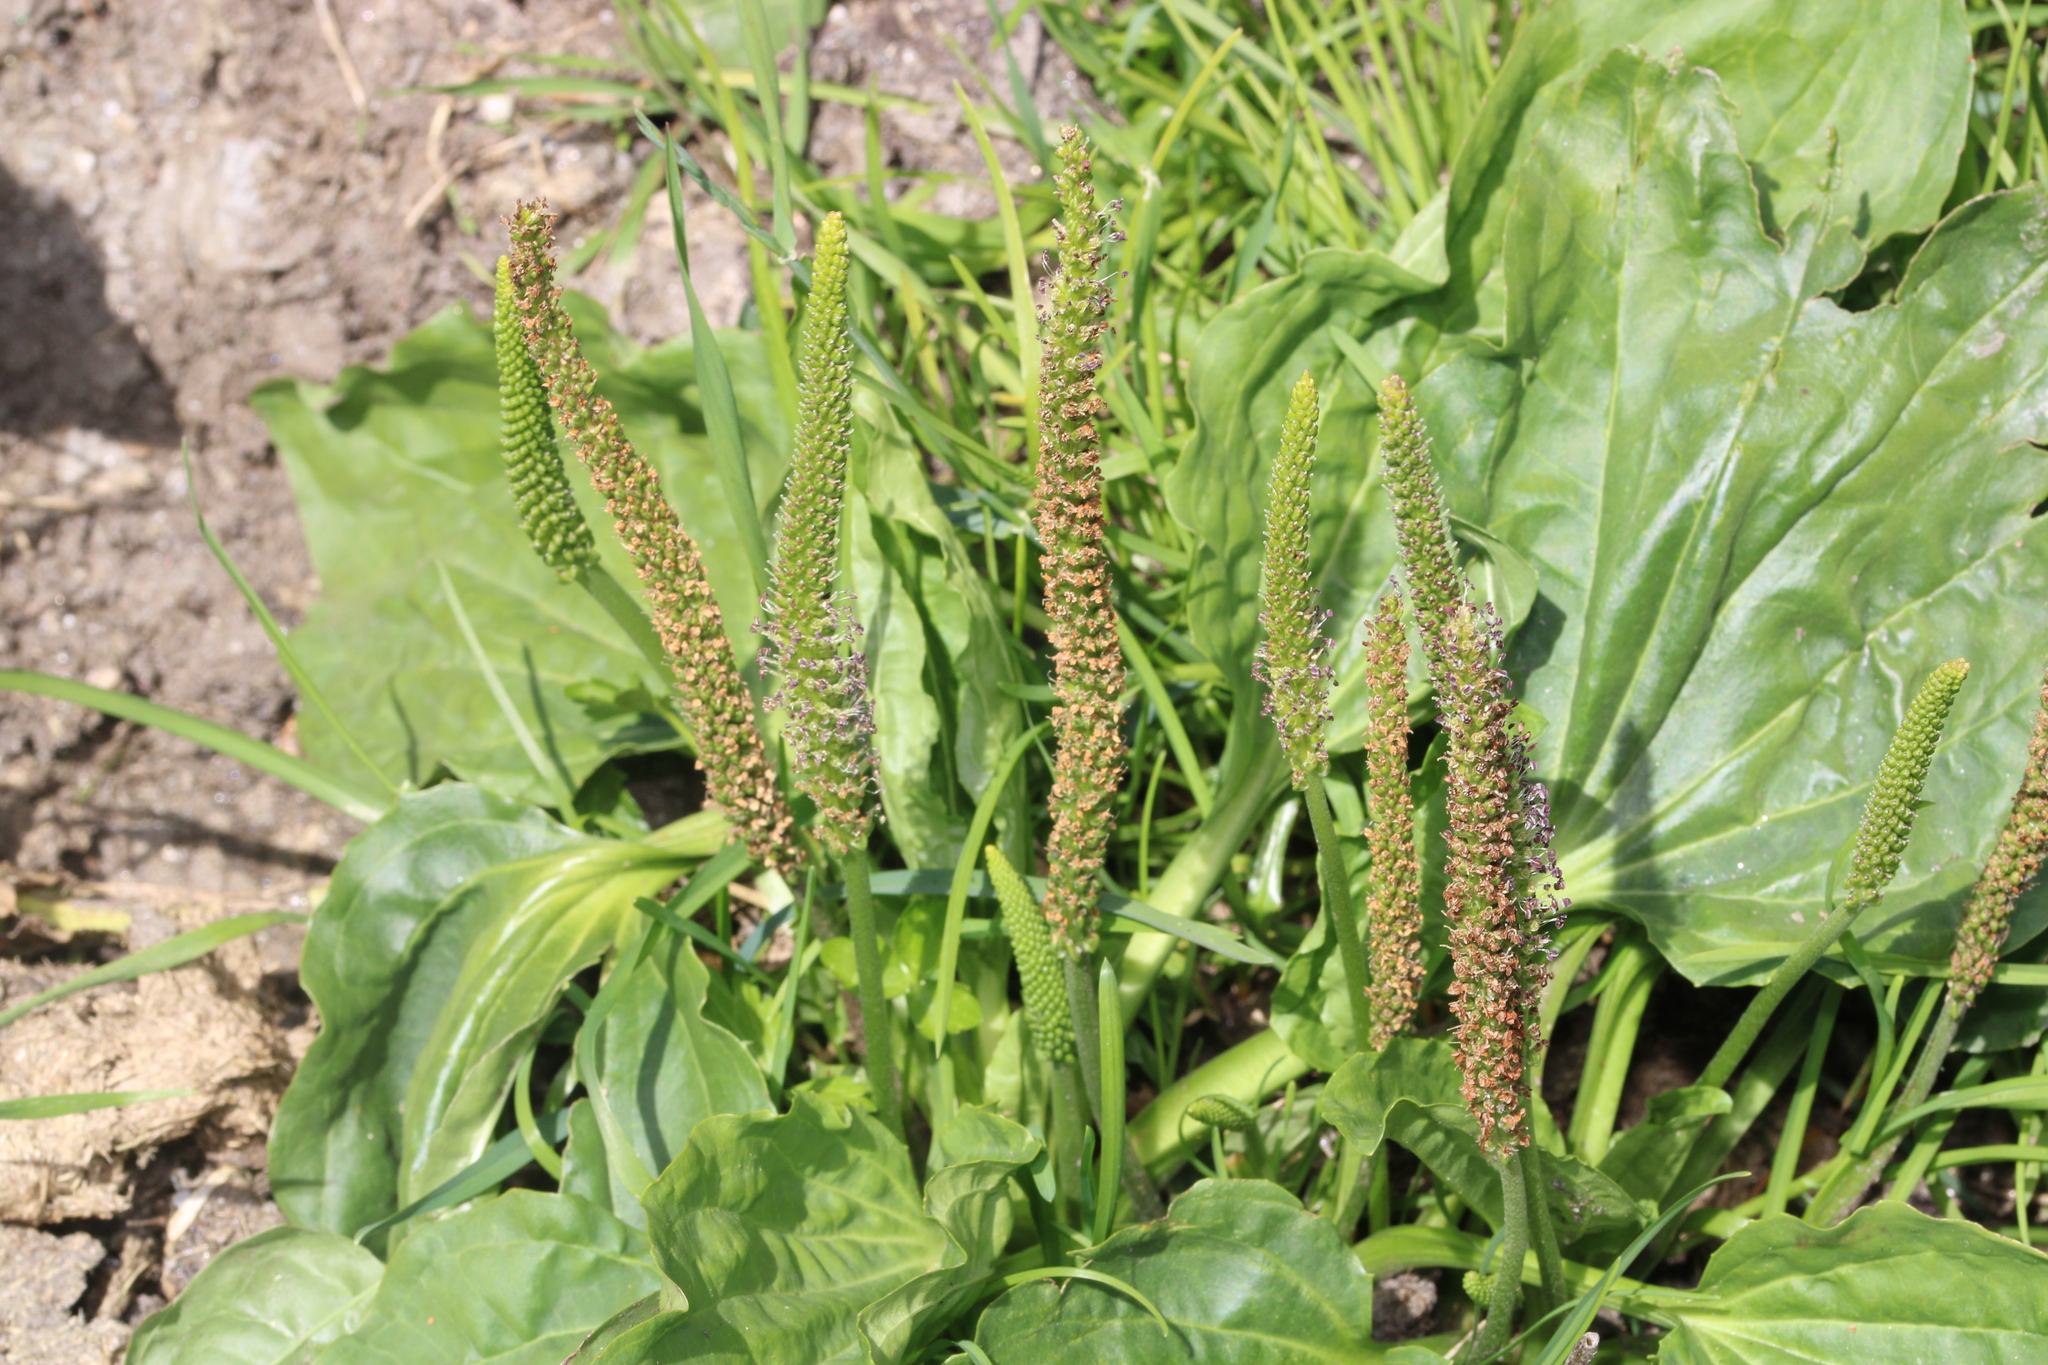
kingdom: Plantae
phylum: Tracheophyta
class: Magnoliopsida
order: Lamiales
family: Plantaginaceae
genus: Plantago
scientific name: Plantago major
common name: Common plantain
